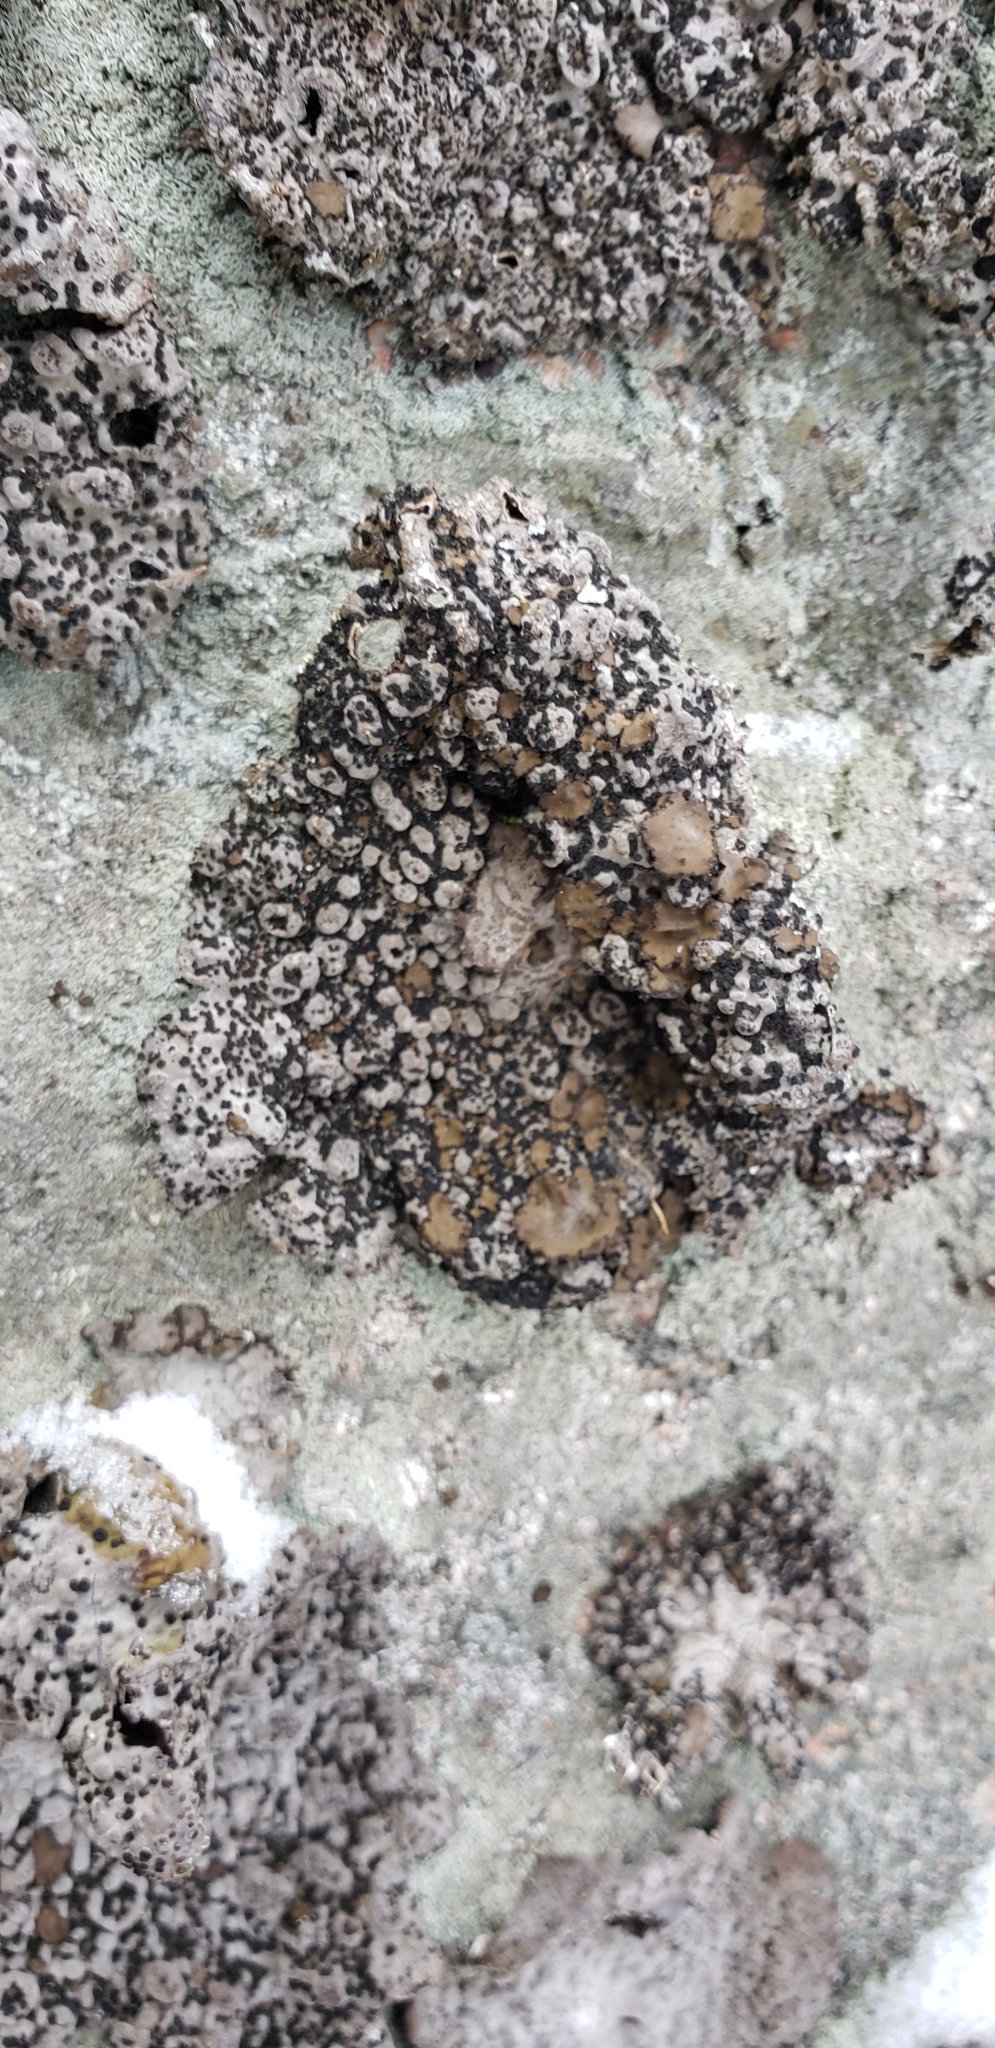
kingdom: Fungi
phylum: Ascomycota
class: Lecanoromycetes
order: Umbilicariales
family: Umbilicariaceae
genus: Lasallia
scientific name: Lasallia papulosa
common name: Common toadskin lichen
